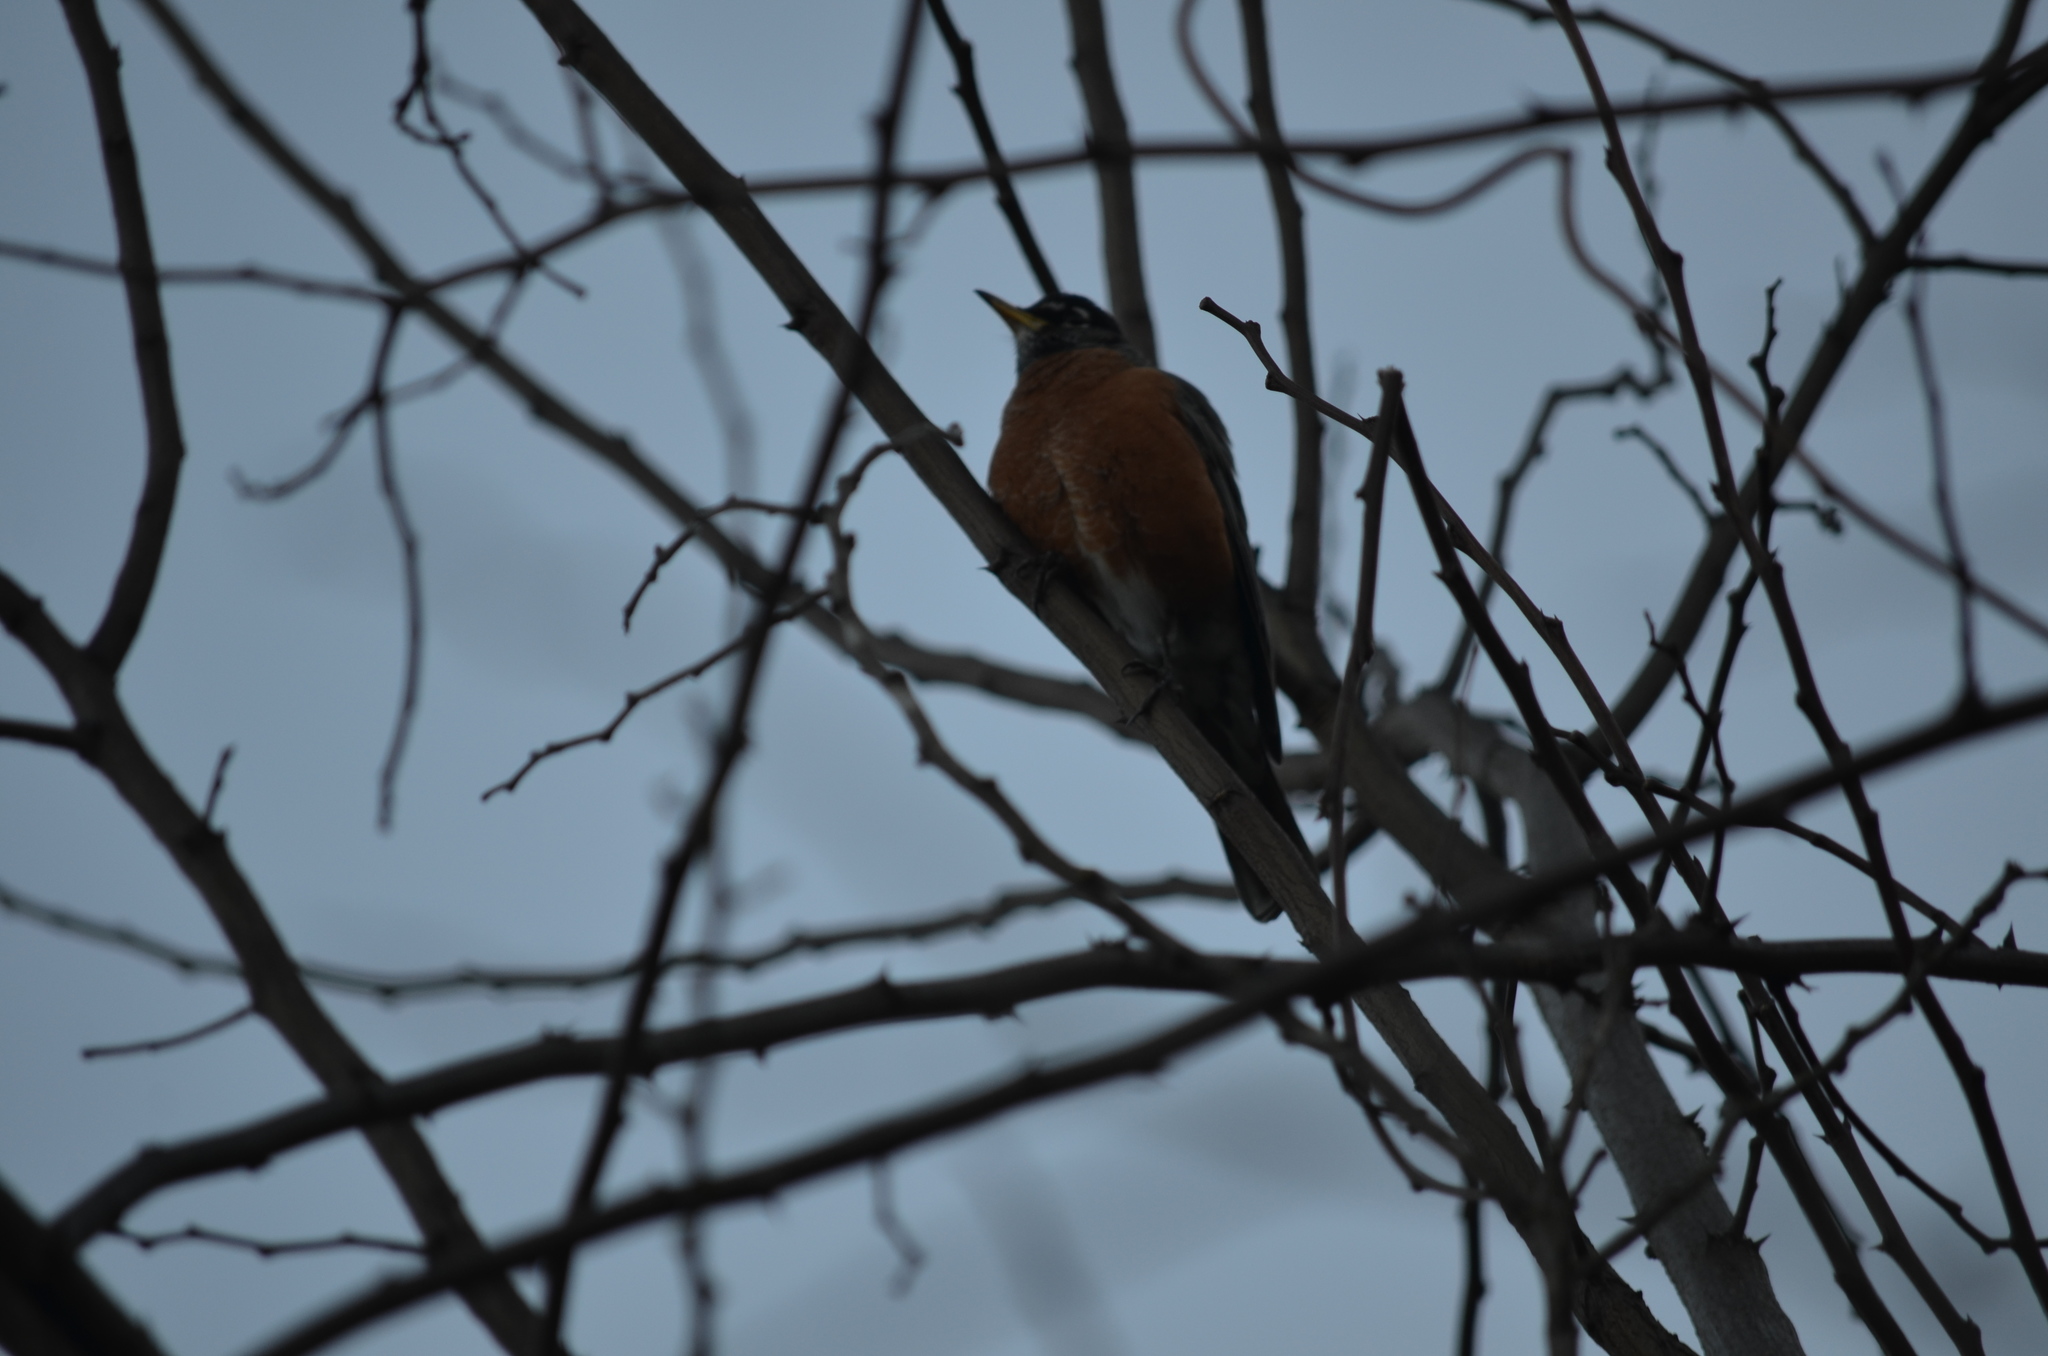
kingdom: Animalia
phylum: Chordata
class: Aves
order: Passeriformes
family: Turdidae
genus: Turdus
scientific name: Turdus migratorius
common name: American robin
